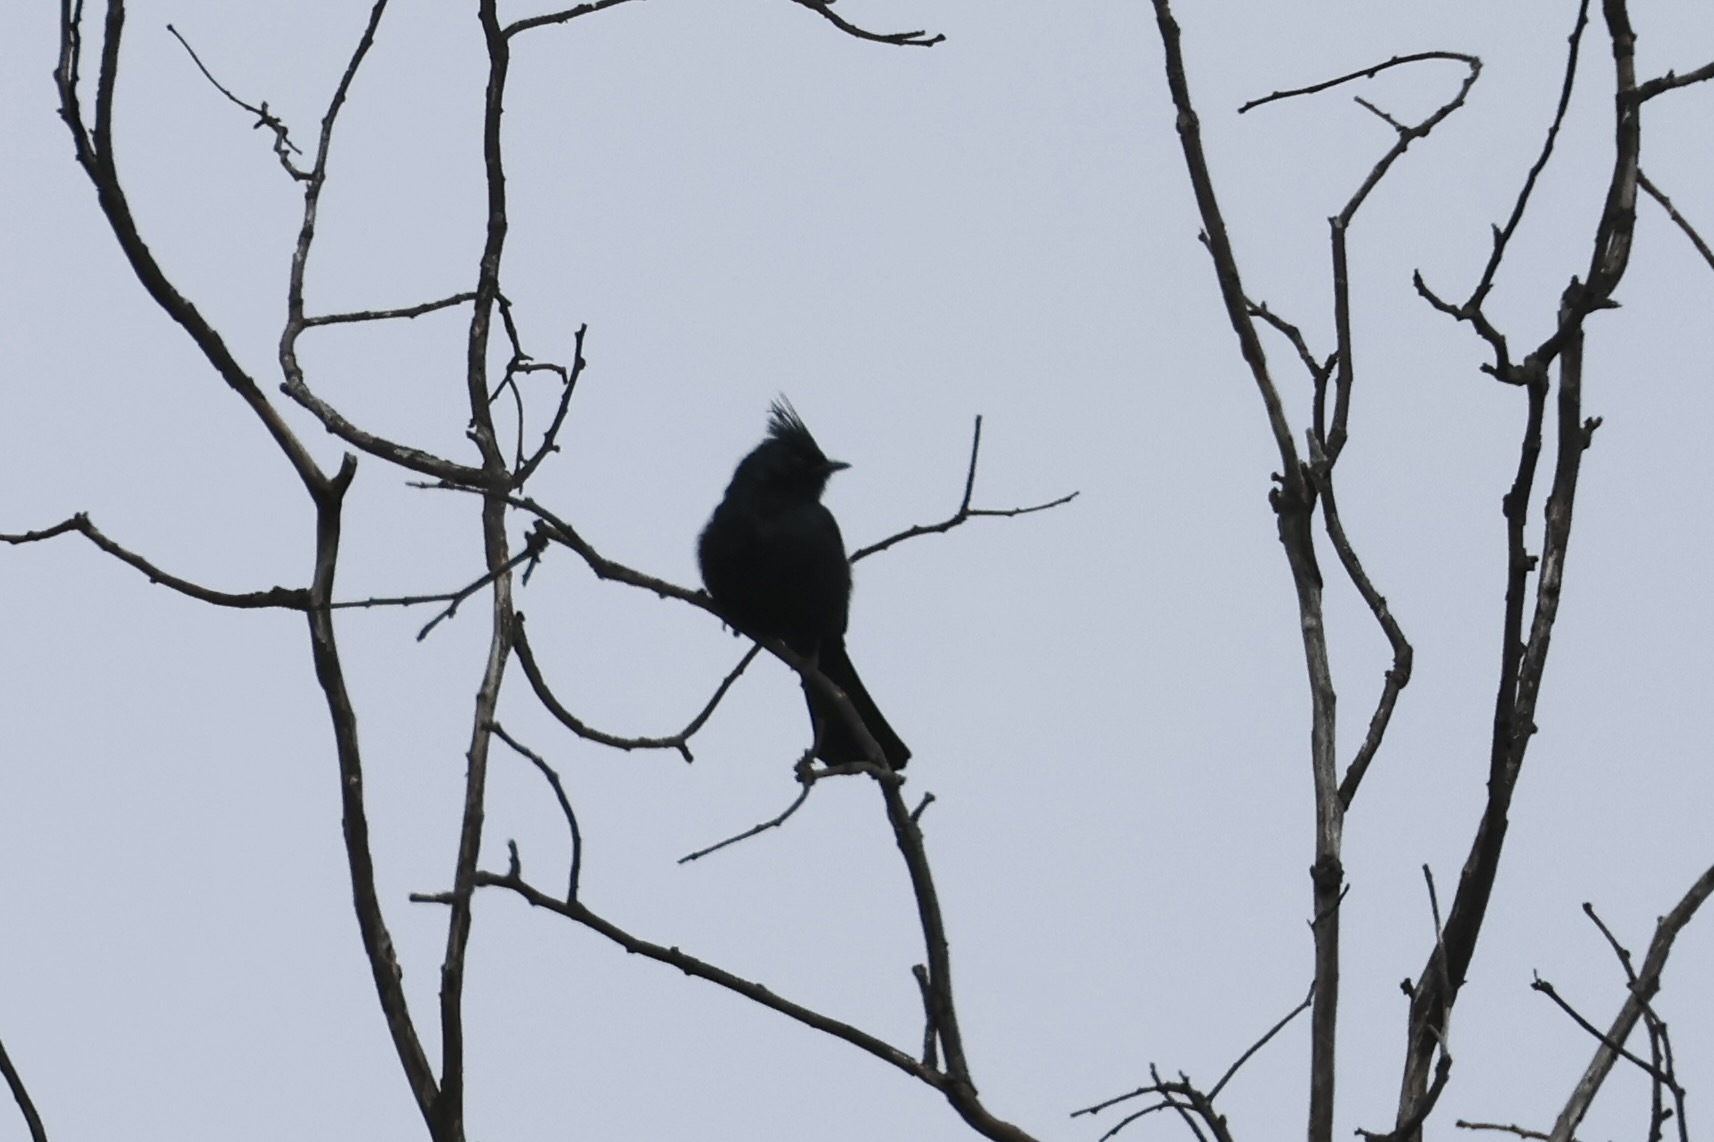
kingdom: Animalia
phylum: Chordata
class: Aves
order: Passeriformes
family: Ptilogonatidae
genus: Phainopepla
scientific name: Phainopepla nitens
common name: Phainopepla
